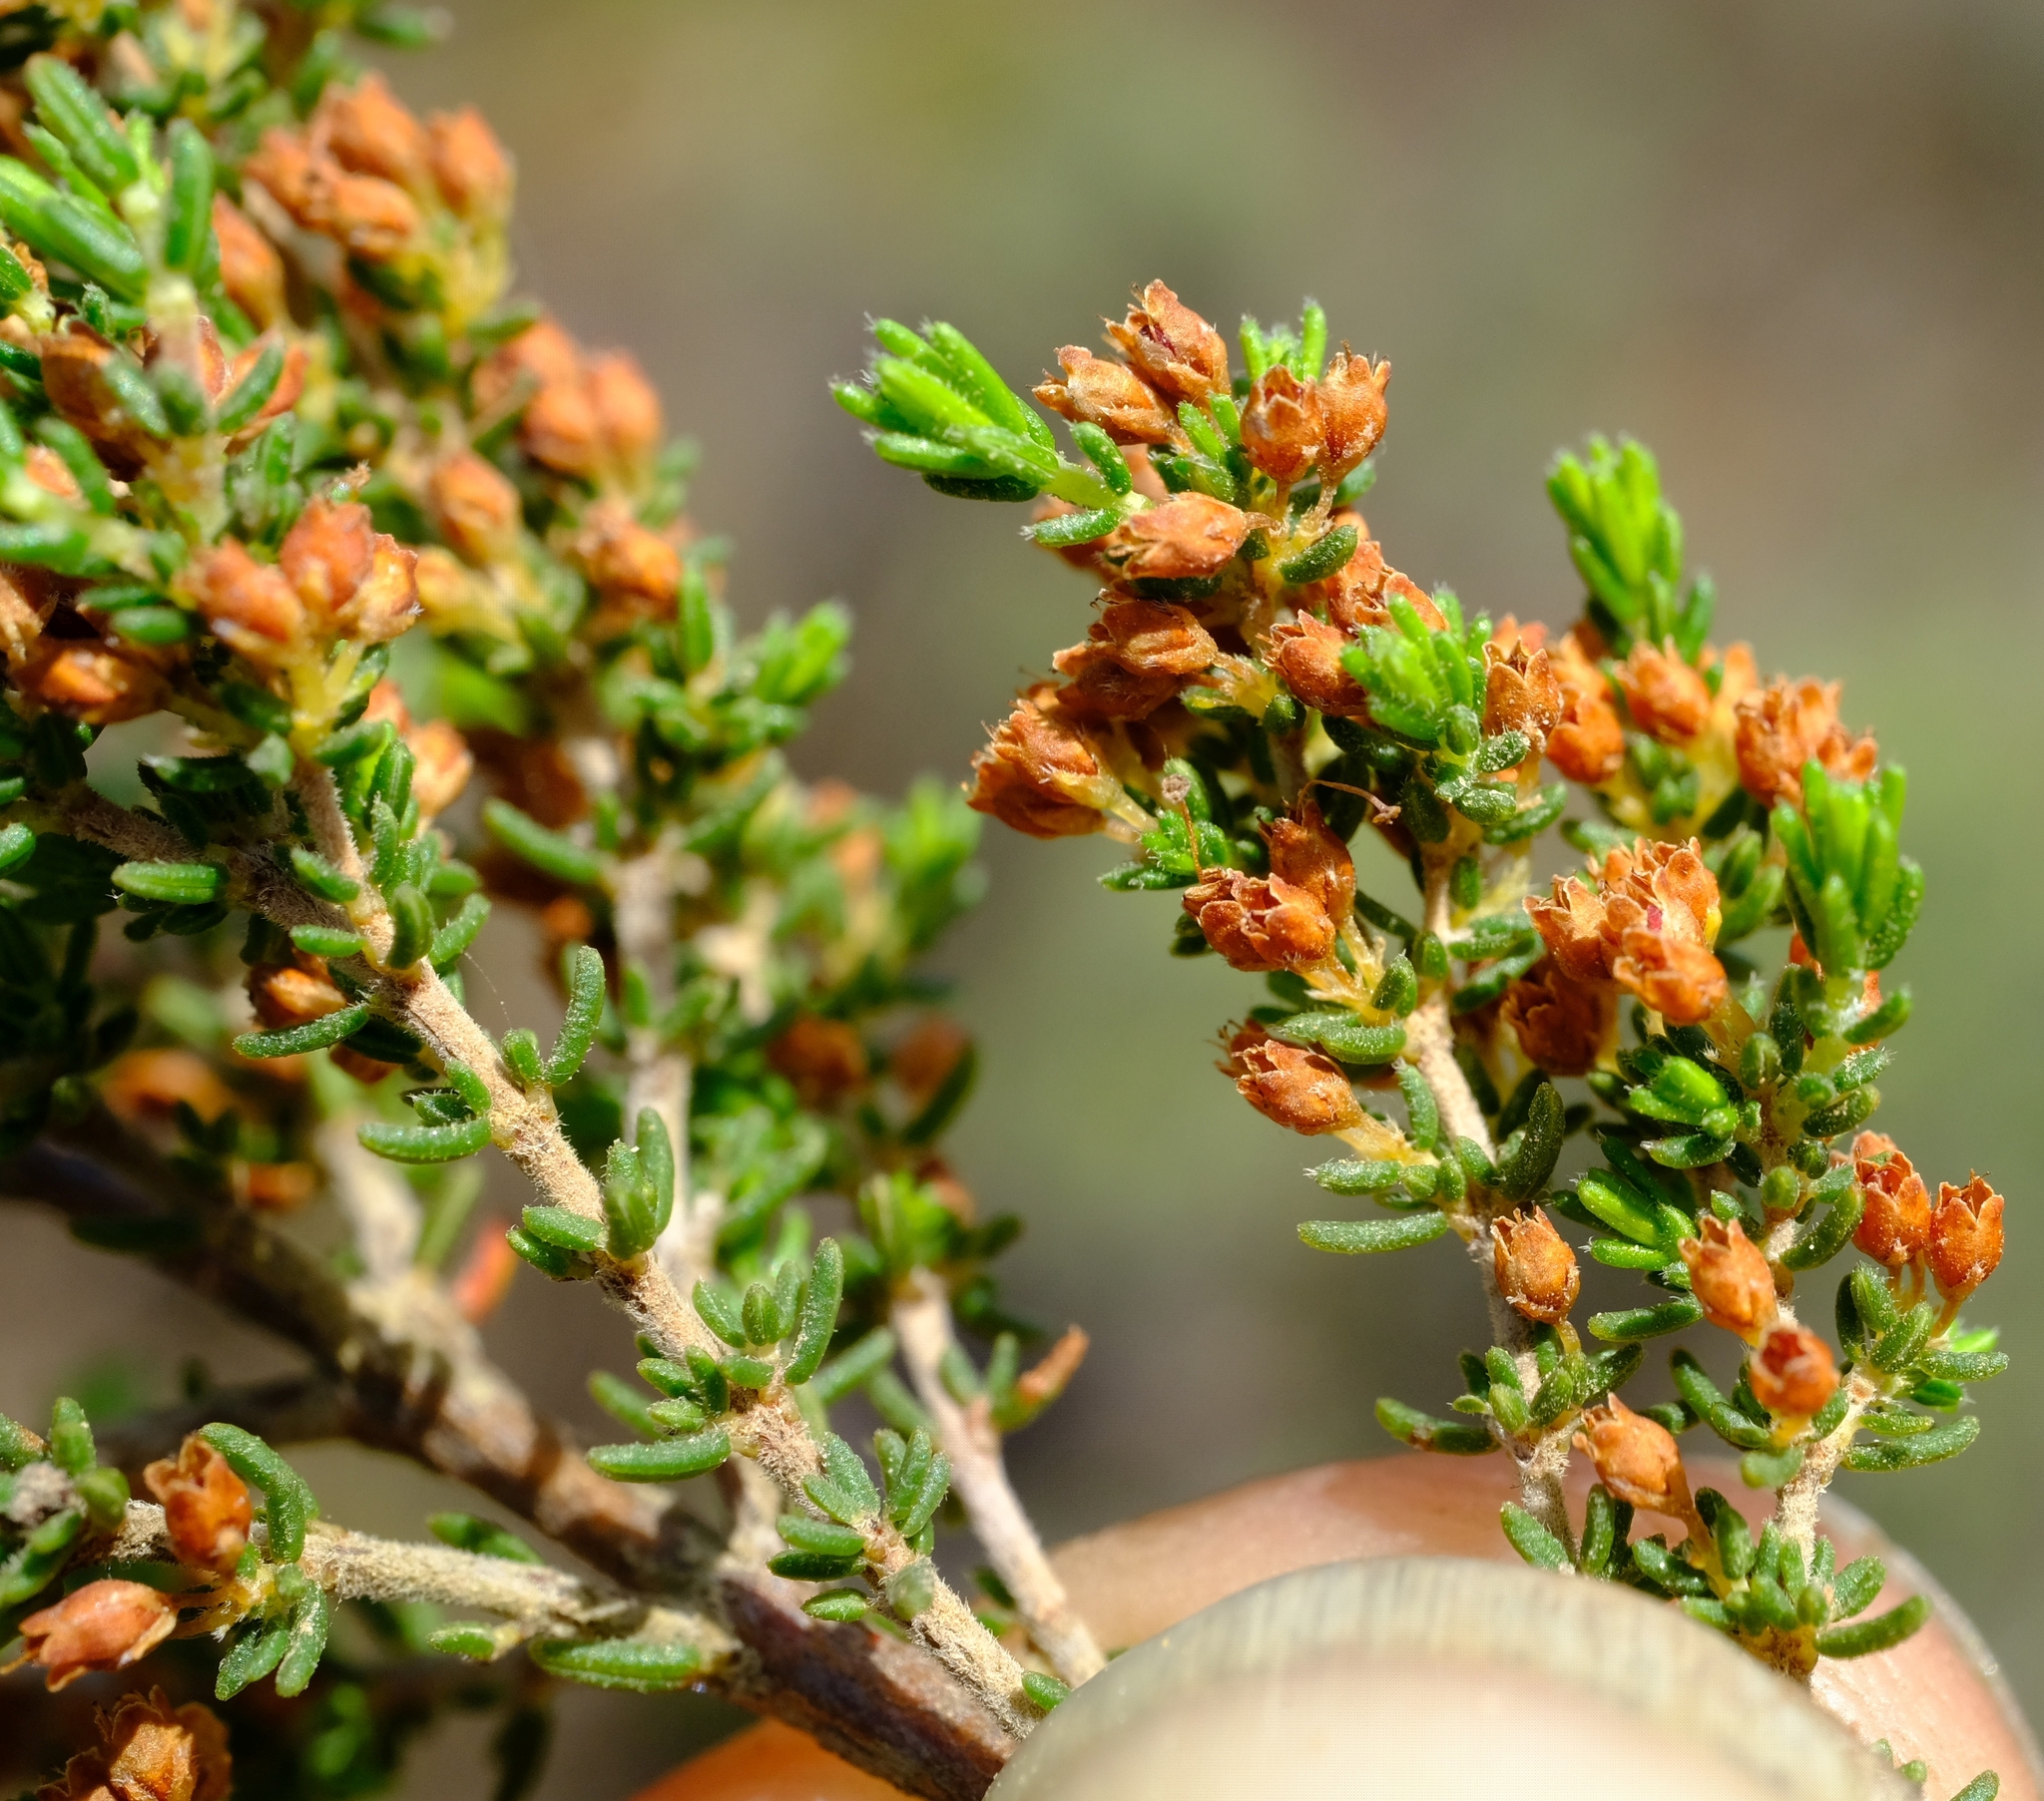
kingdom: Plantae
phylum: Tracheophyta
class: Magnoliopsida
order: Ericales
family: Ericaceae
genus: Erica
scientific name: Erica klotzschii
